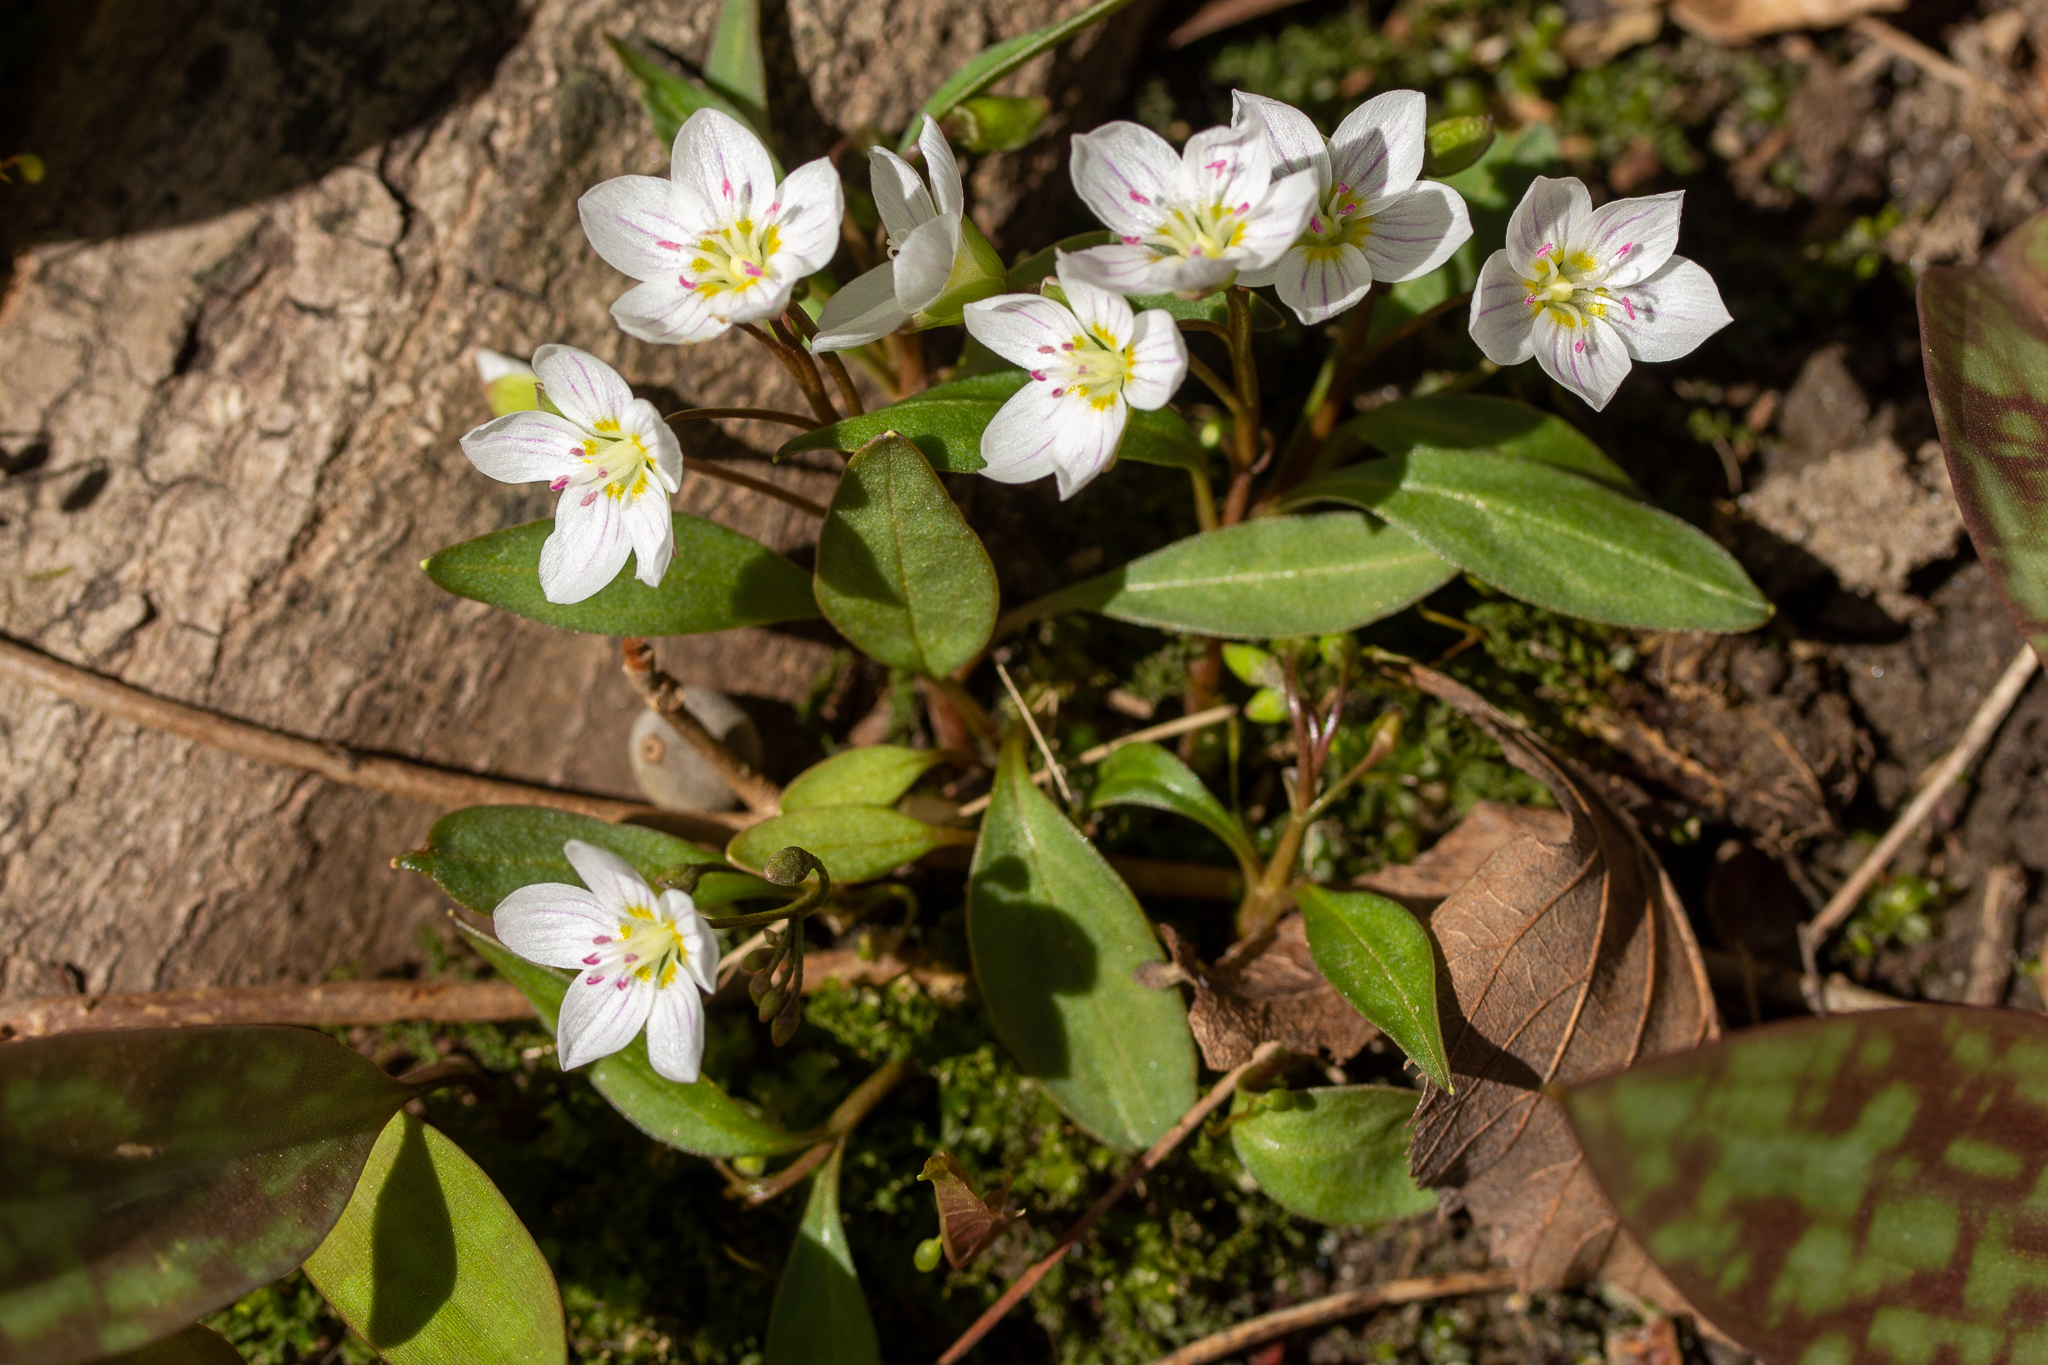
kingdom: Plantae
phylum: Tracheophyta
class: Magnoliopsida
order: Caryophyllales
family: Montiaceae
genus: Claytonia
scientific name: Claytonia caroliniana
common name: Carolina spring beauty
